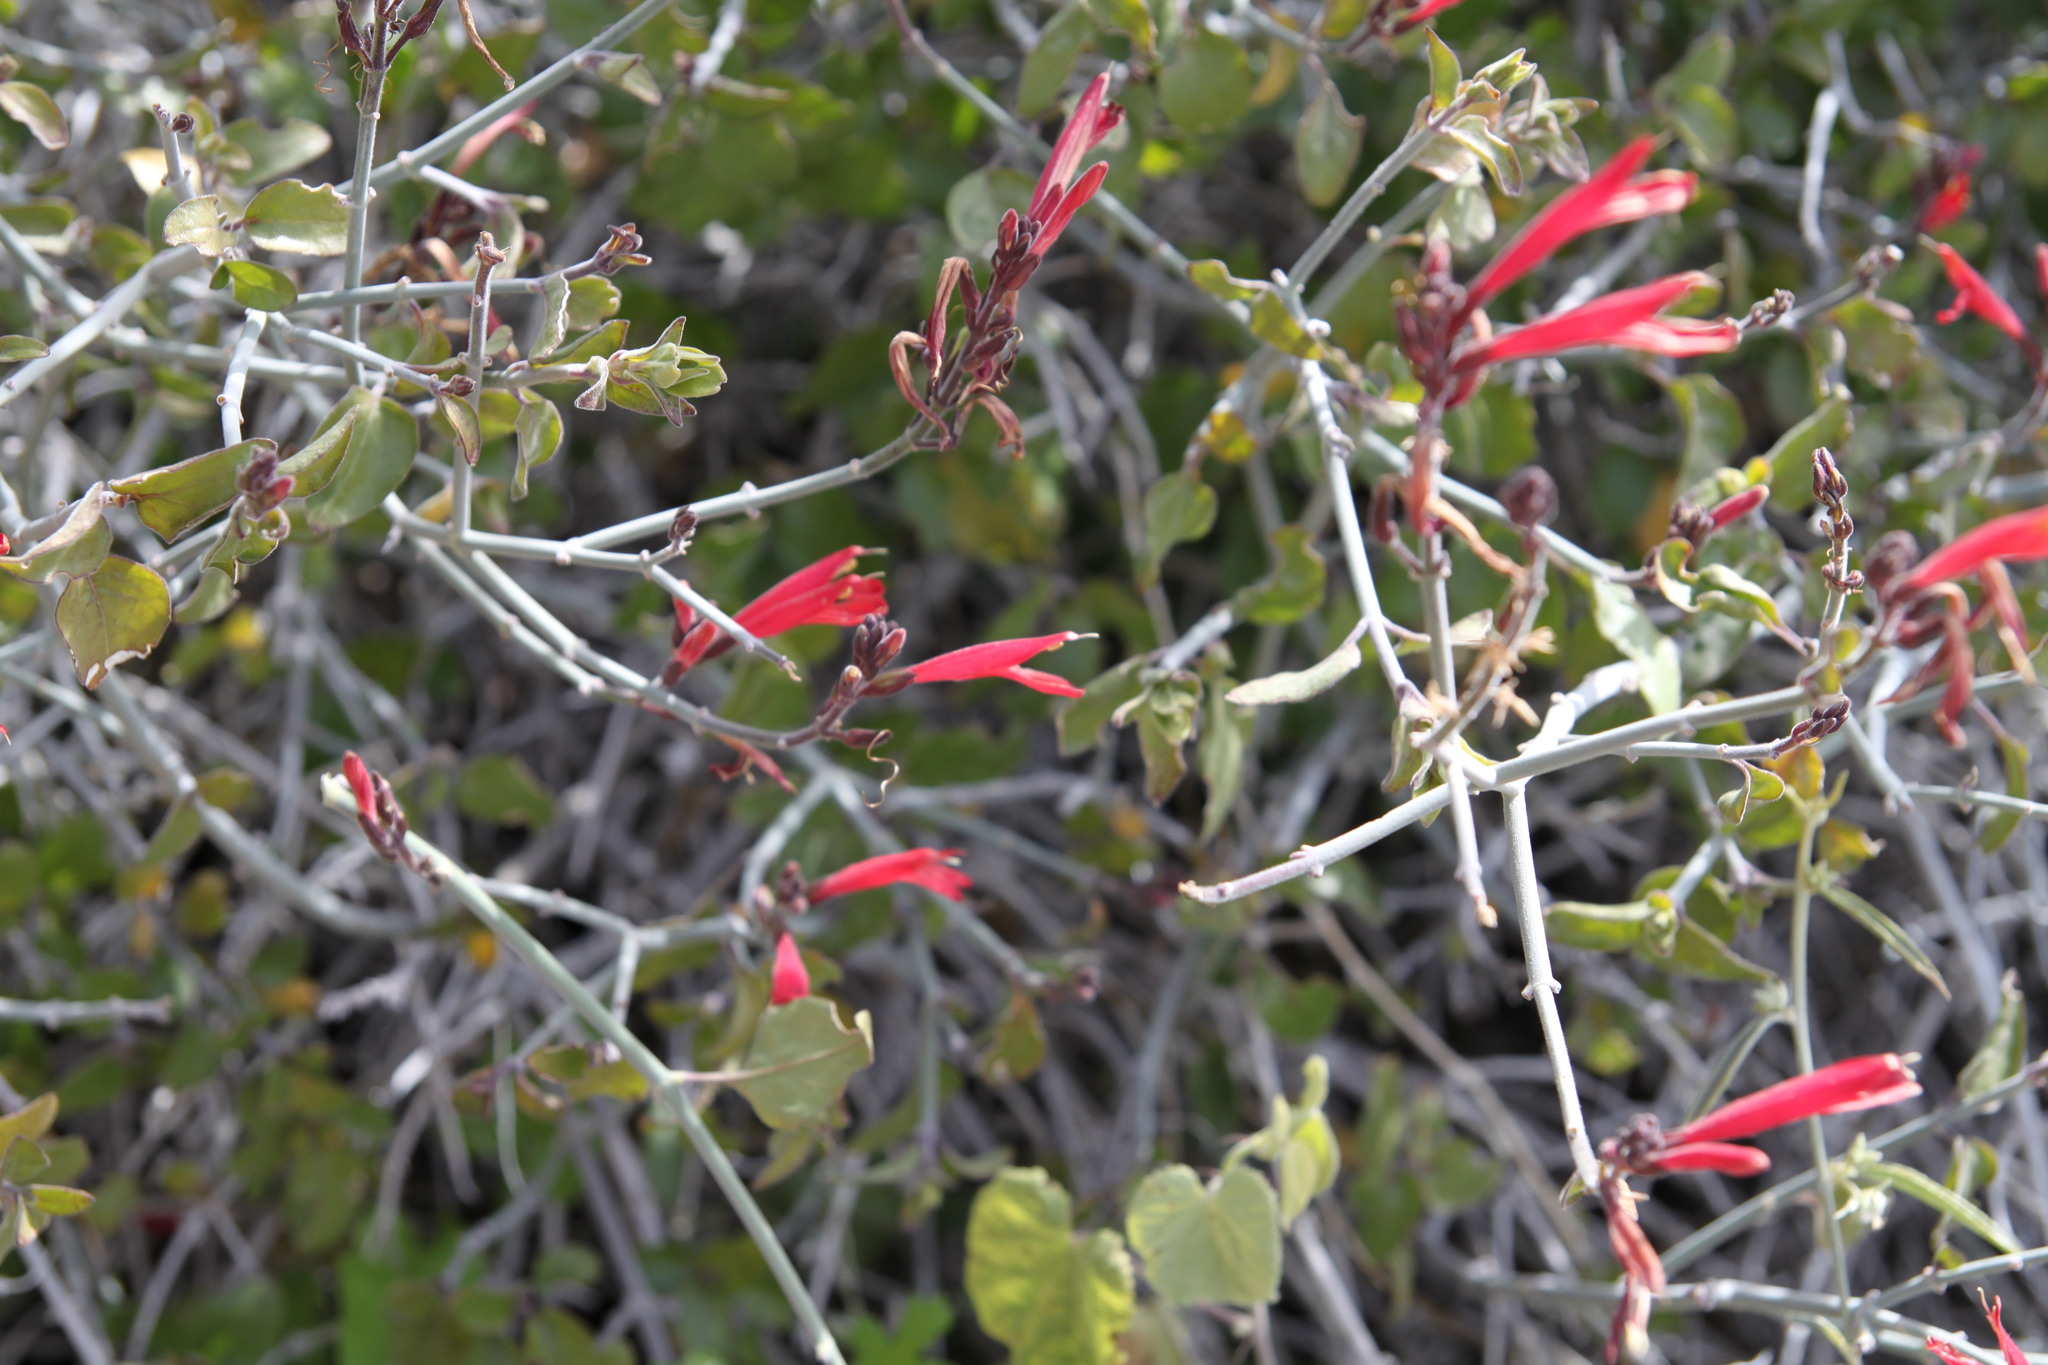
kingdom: Plantae
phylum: Tracheophyta
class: Magnoliopsida
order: Lamiales
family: Acanthaceae
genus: Justicia
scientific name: Justicia californica
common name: Chuparosa-honeysuckle
